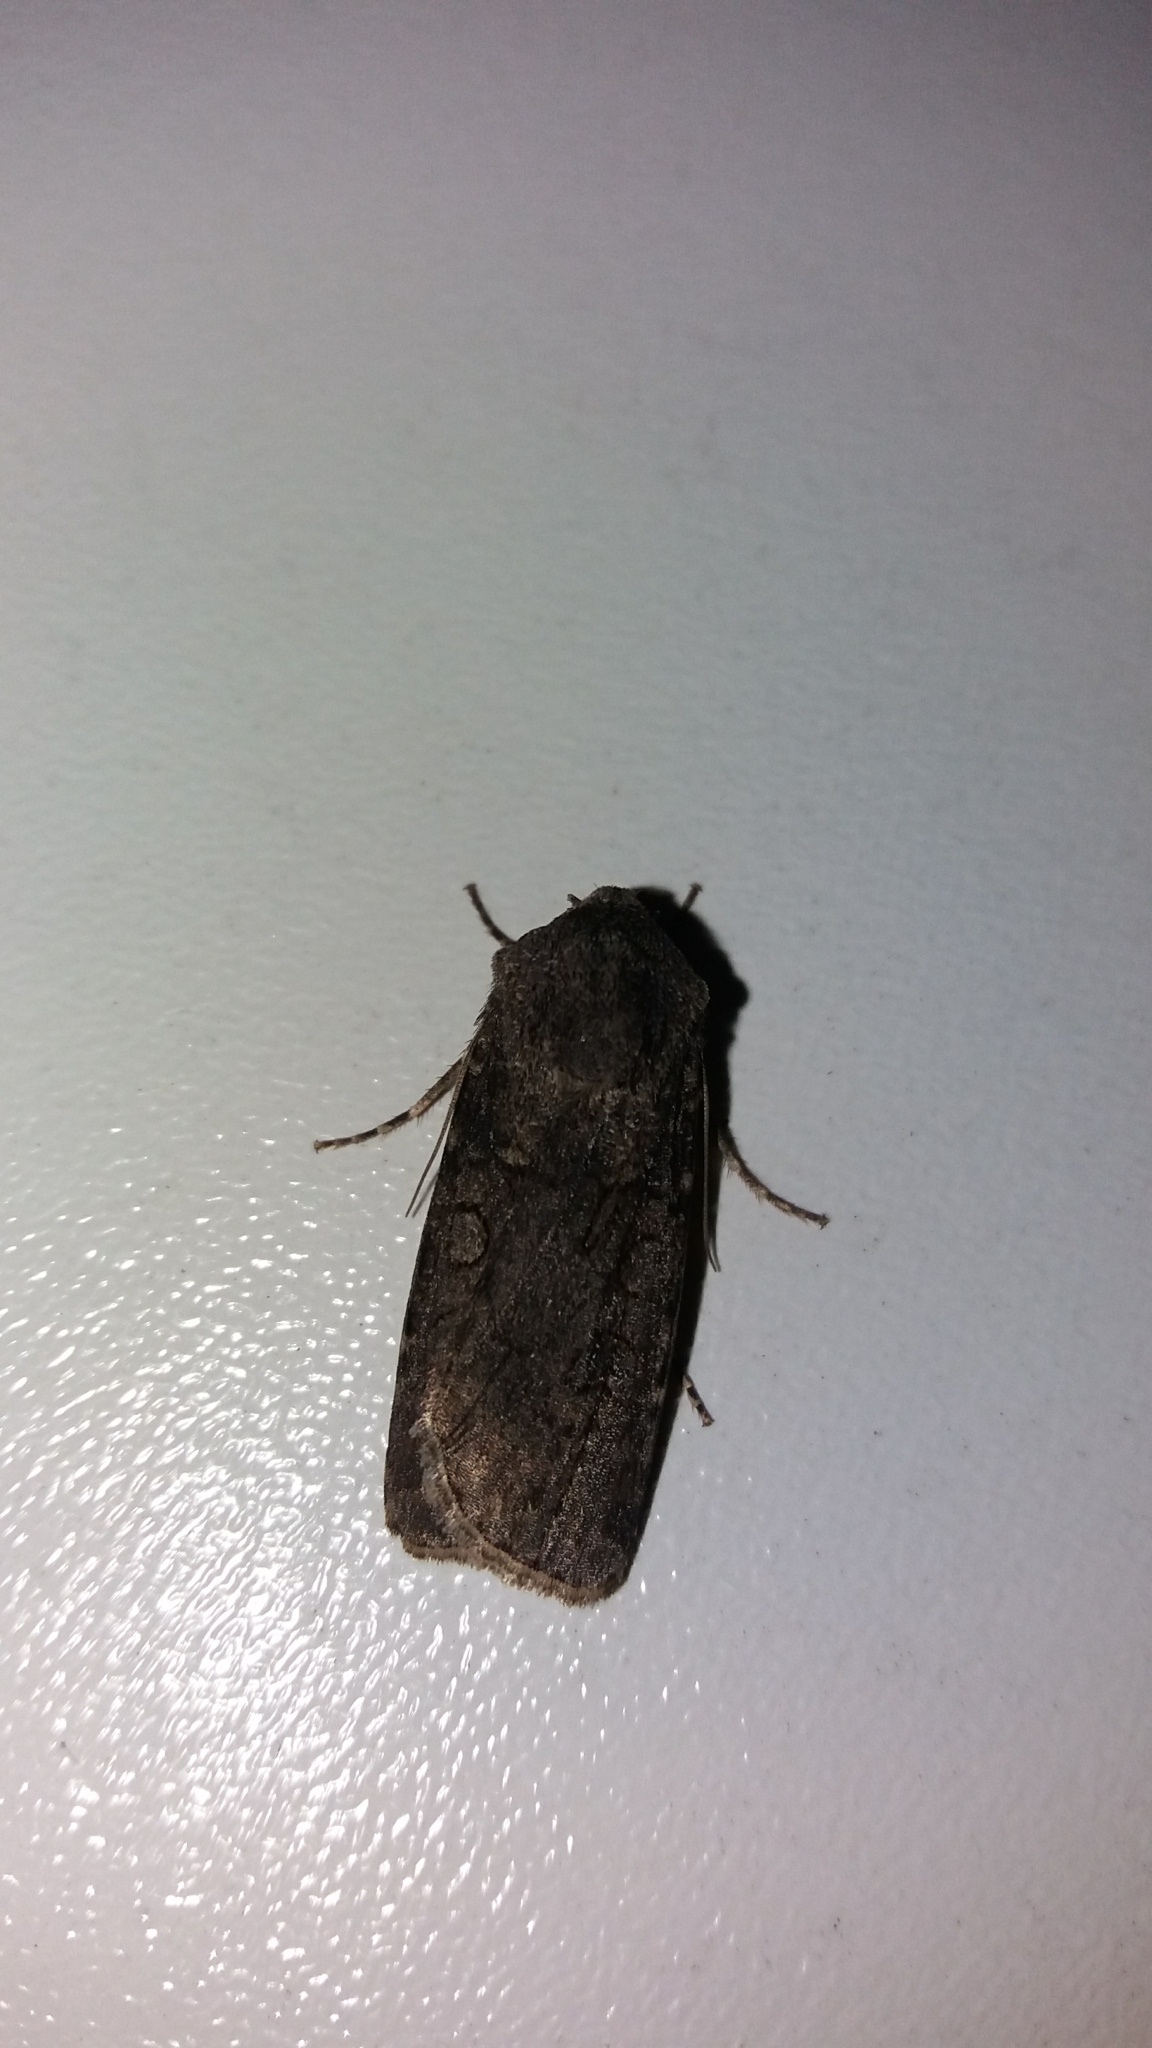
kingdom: Animalia
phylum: Arthropoda
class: Insecta
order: Lepidoptera
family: Noctuidae
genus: Euxoa
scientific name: Euxoa nigricans
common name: Garden dart
